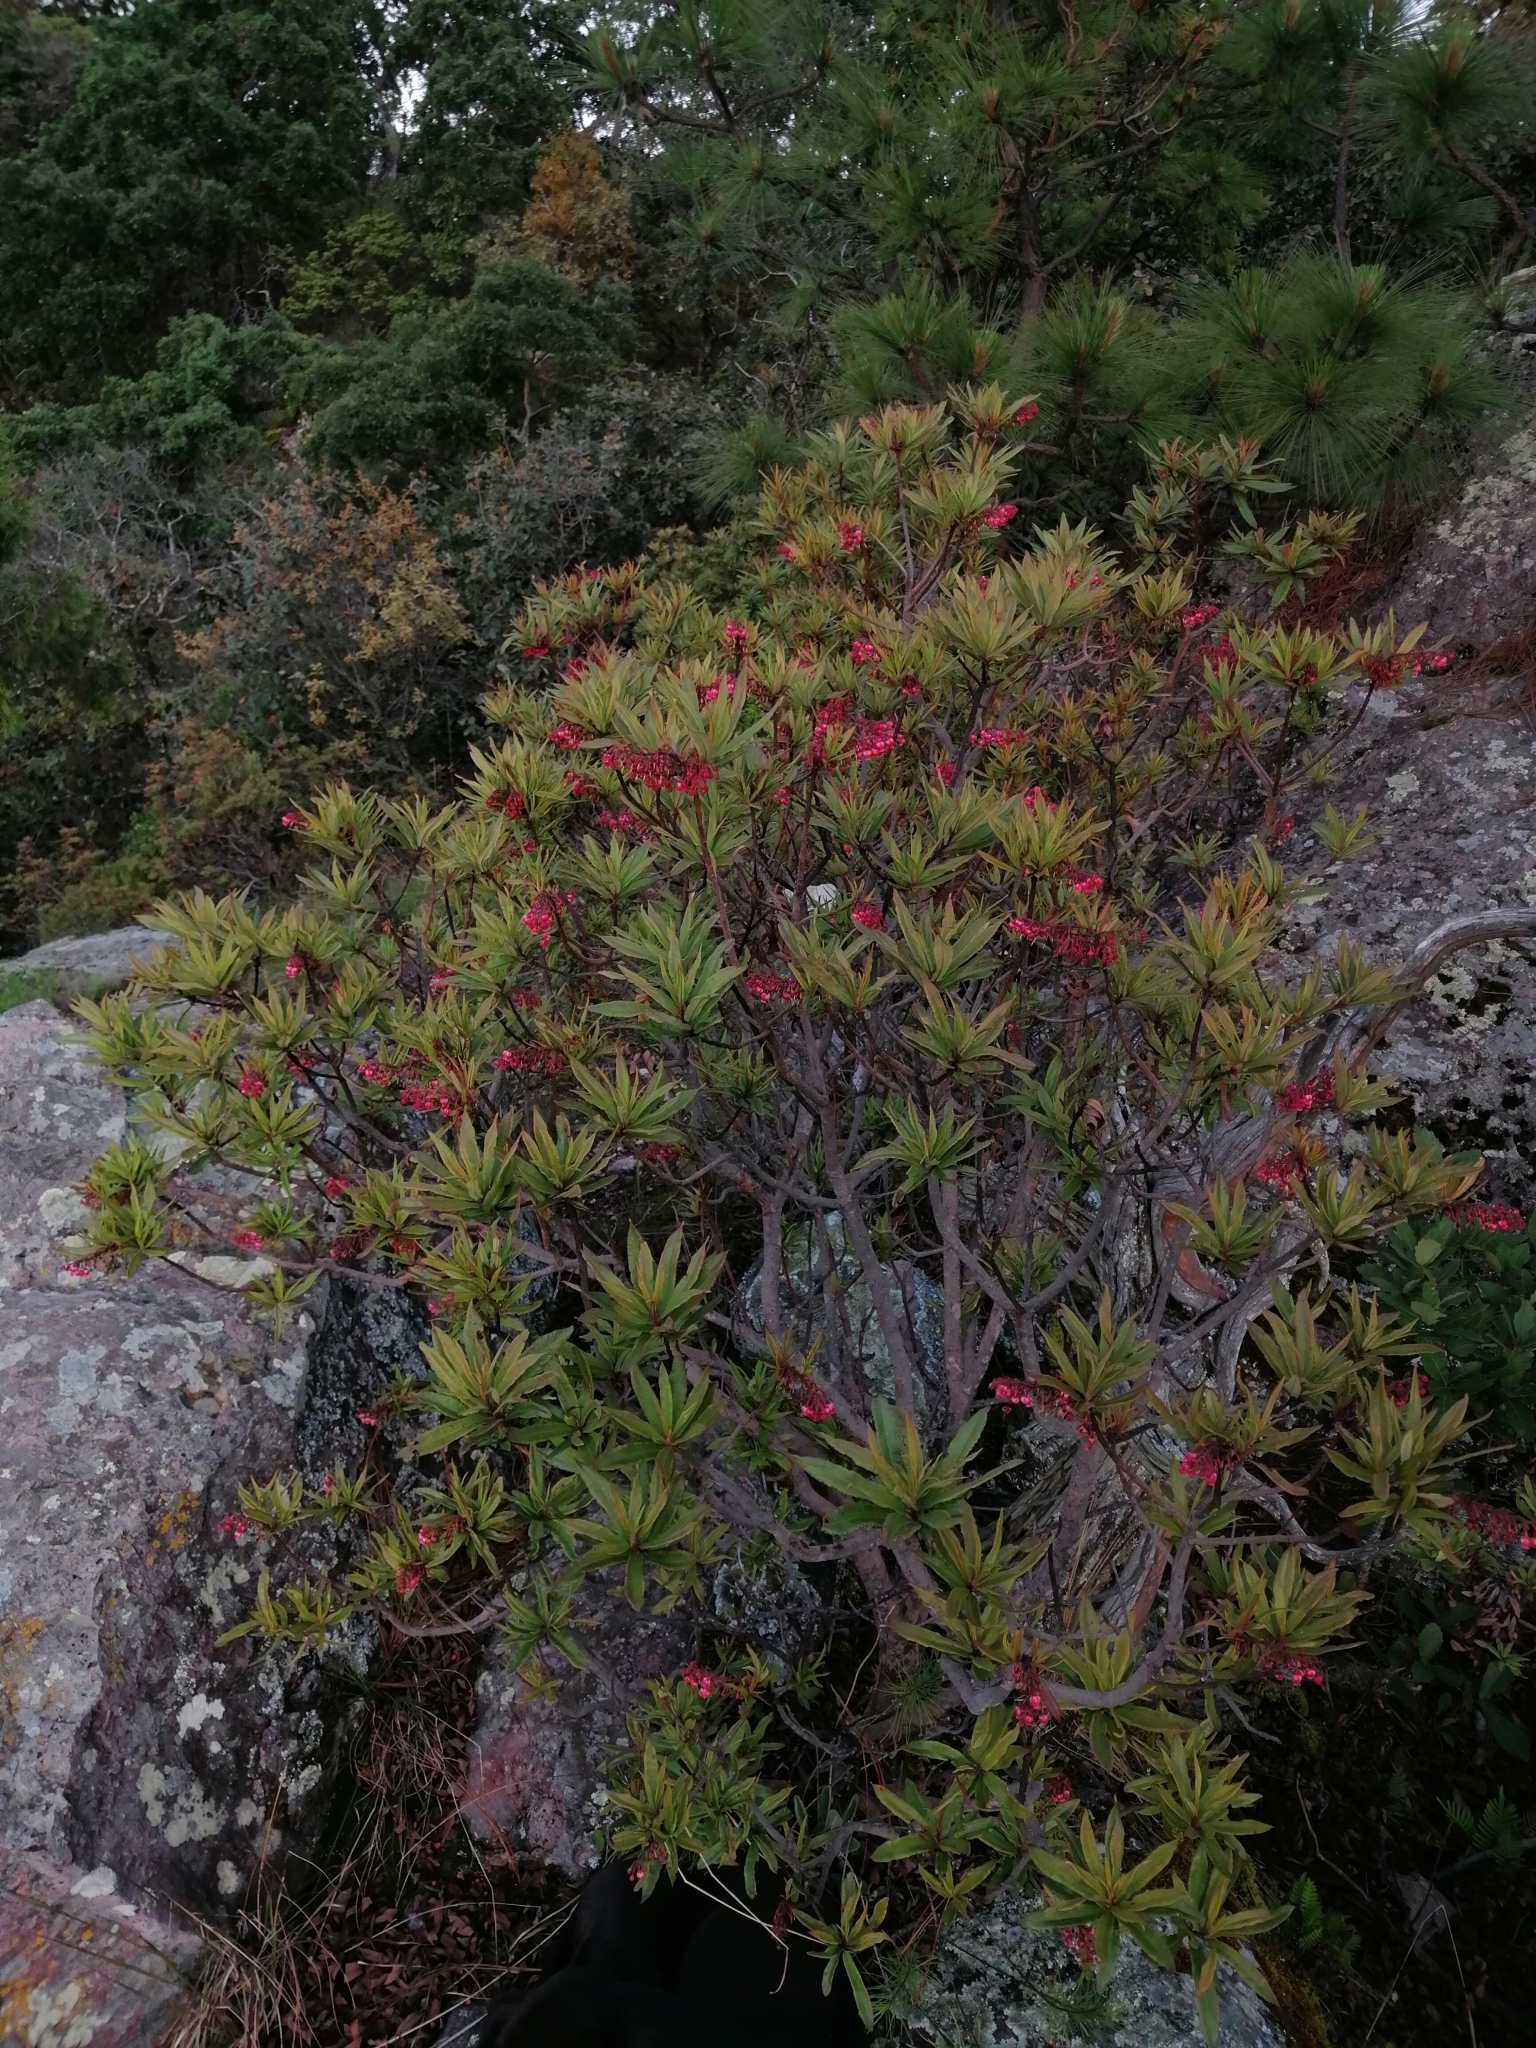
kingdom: Plantae
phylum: Tracheophyta
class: Magnoliopsida
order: Ericales
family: Ericaceae
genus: Comarostaphylis
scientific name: Comarostaphylis glaucescens
